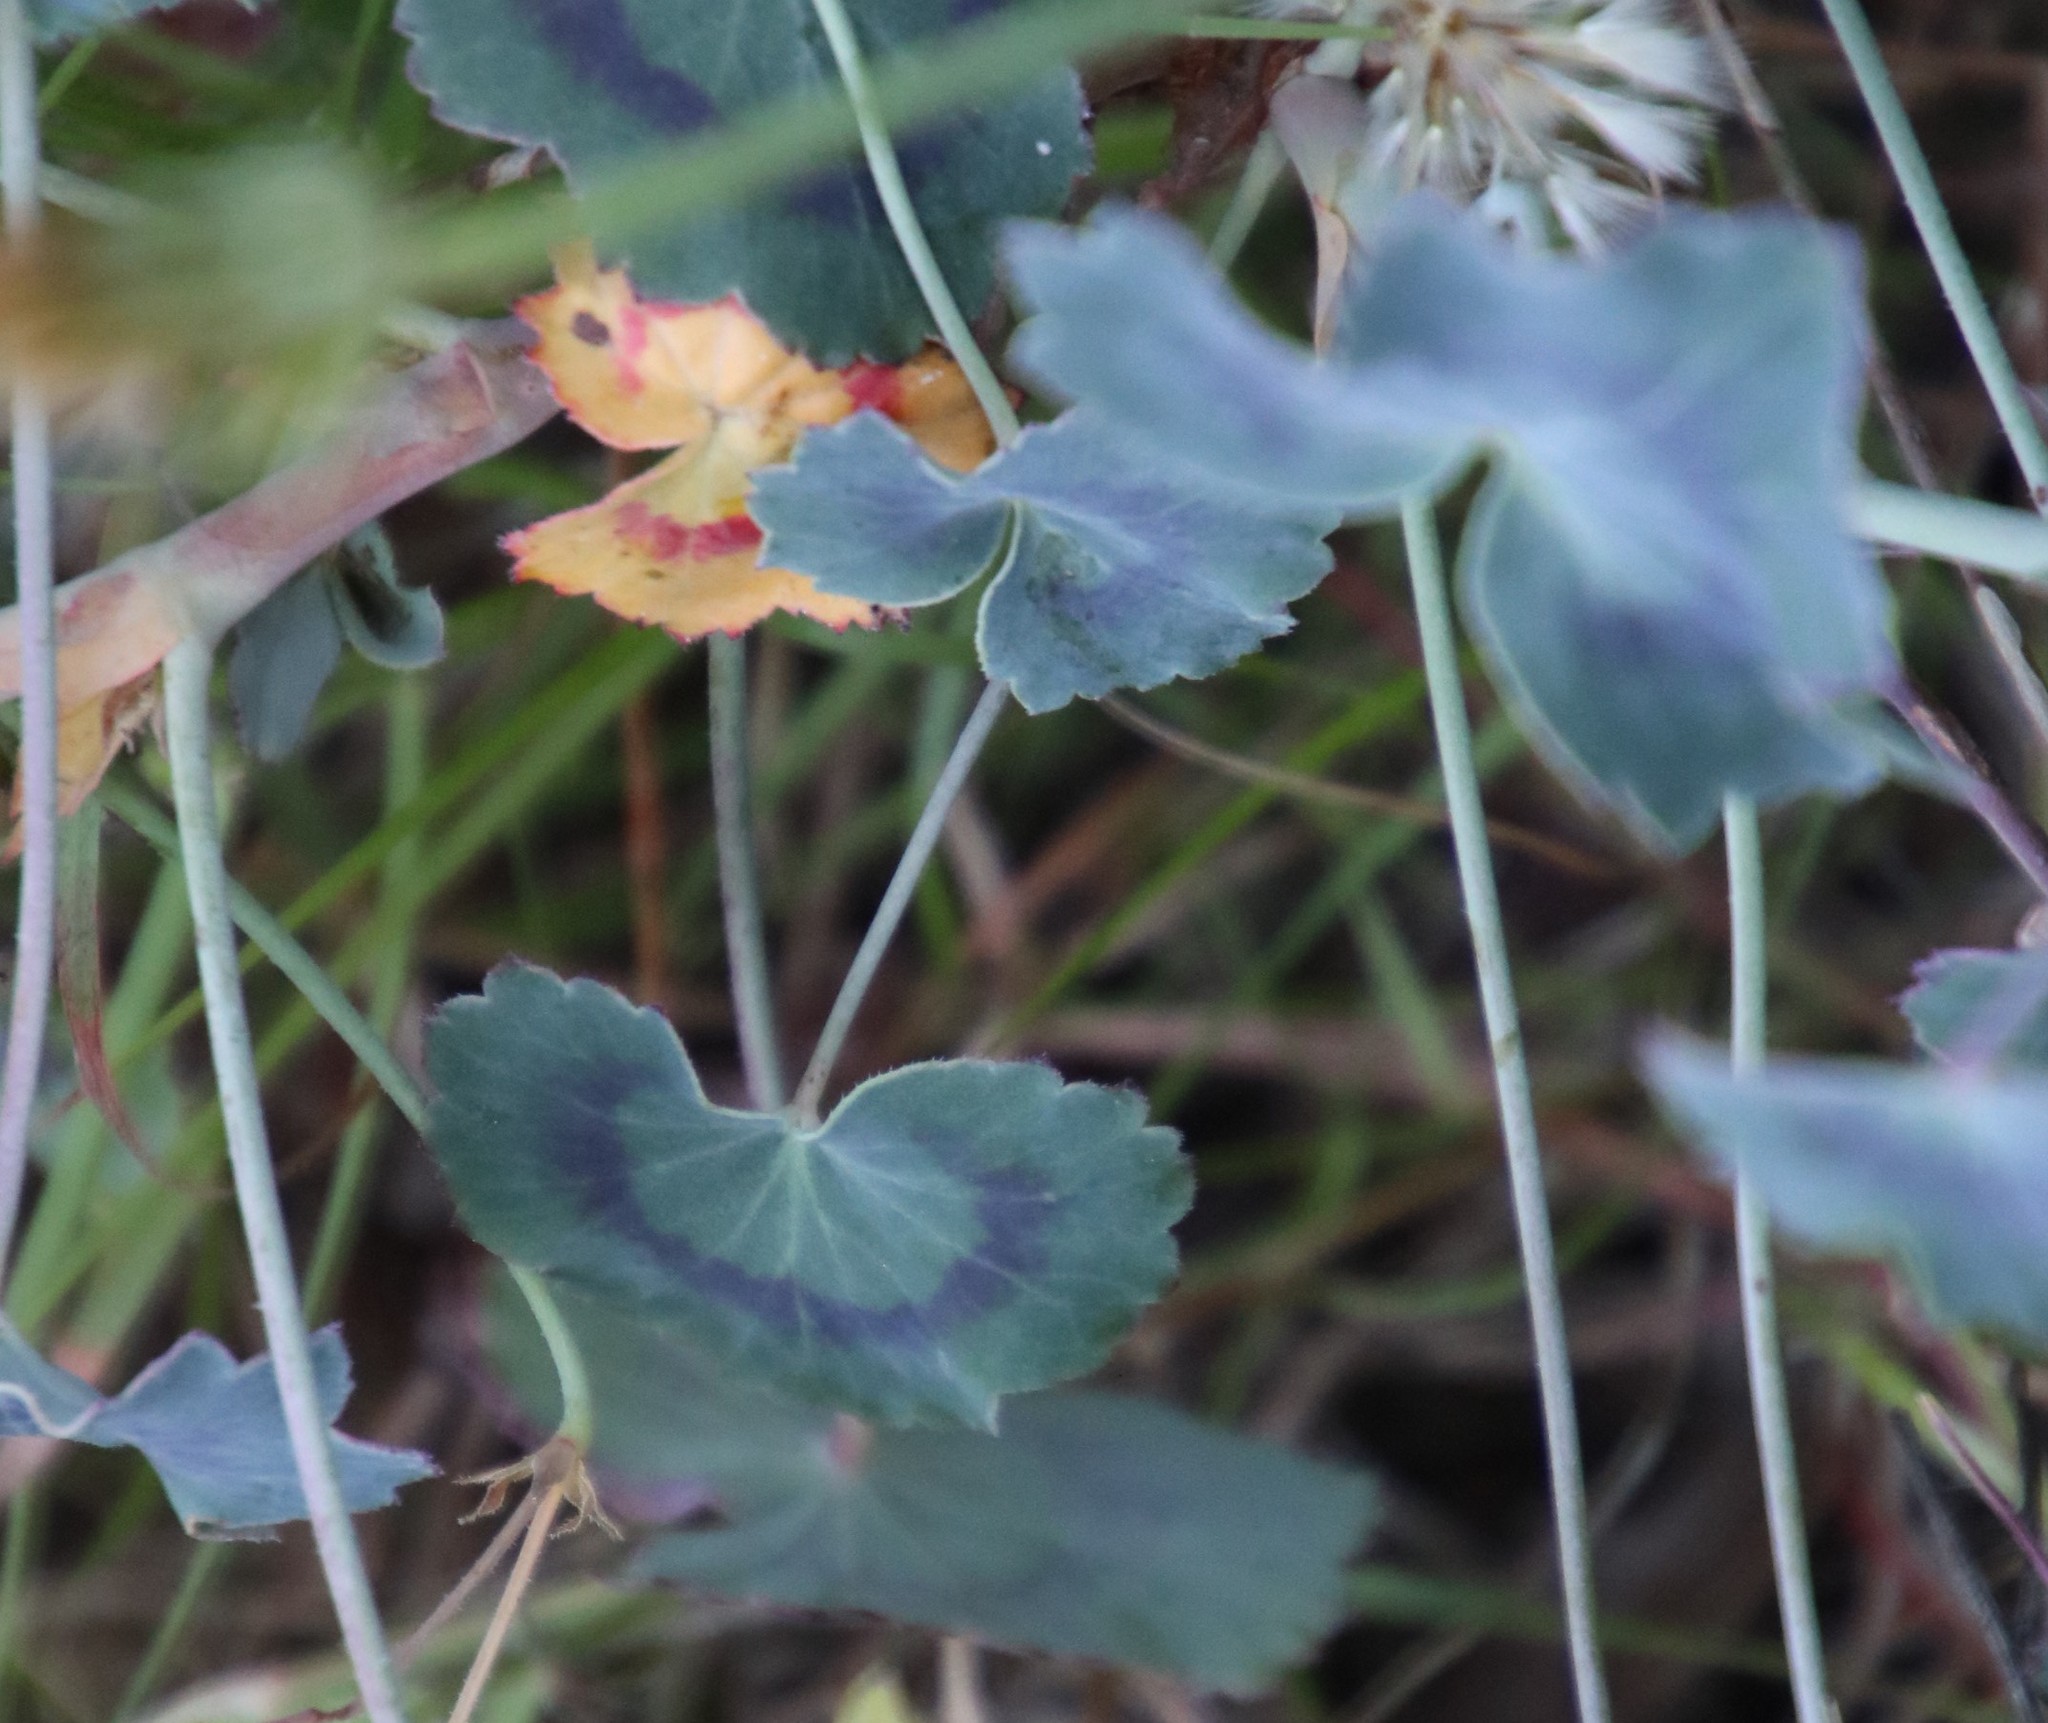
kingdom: Plantae
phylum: Tracheophyta
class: Magnoliopsida
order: Geraniales
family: Geraniaceae
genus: Pelargonium
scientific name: Pelargonium tabulare
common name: Table mountain pelargonium
